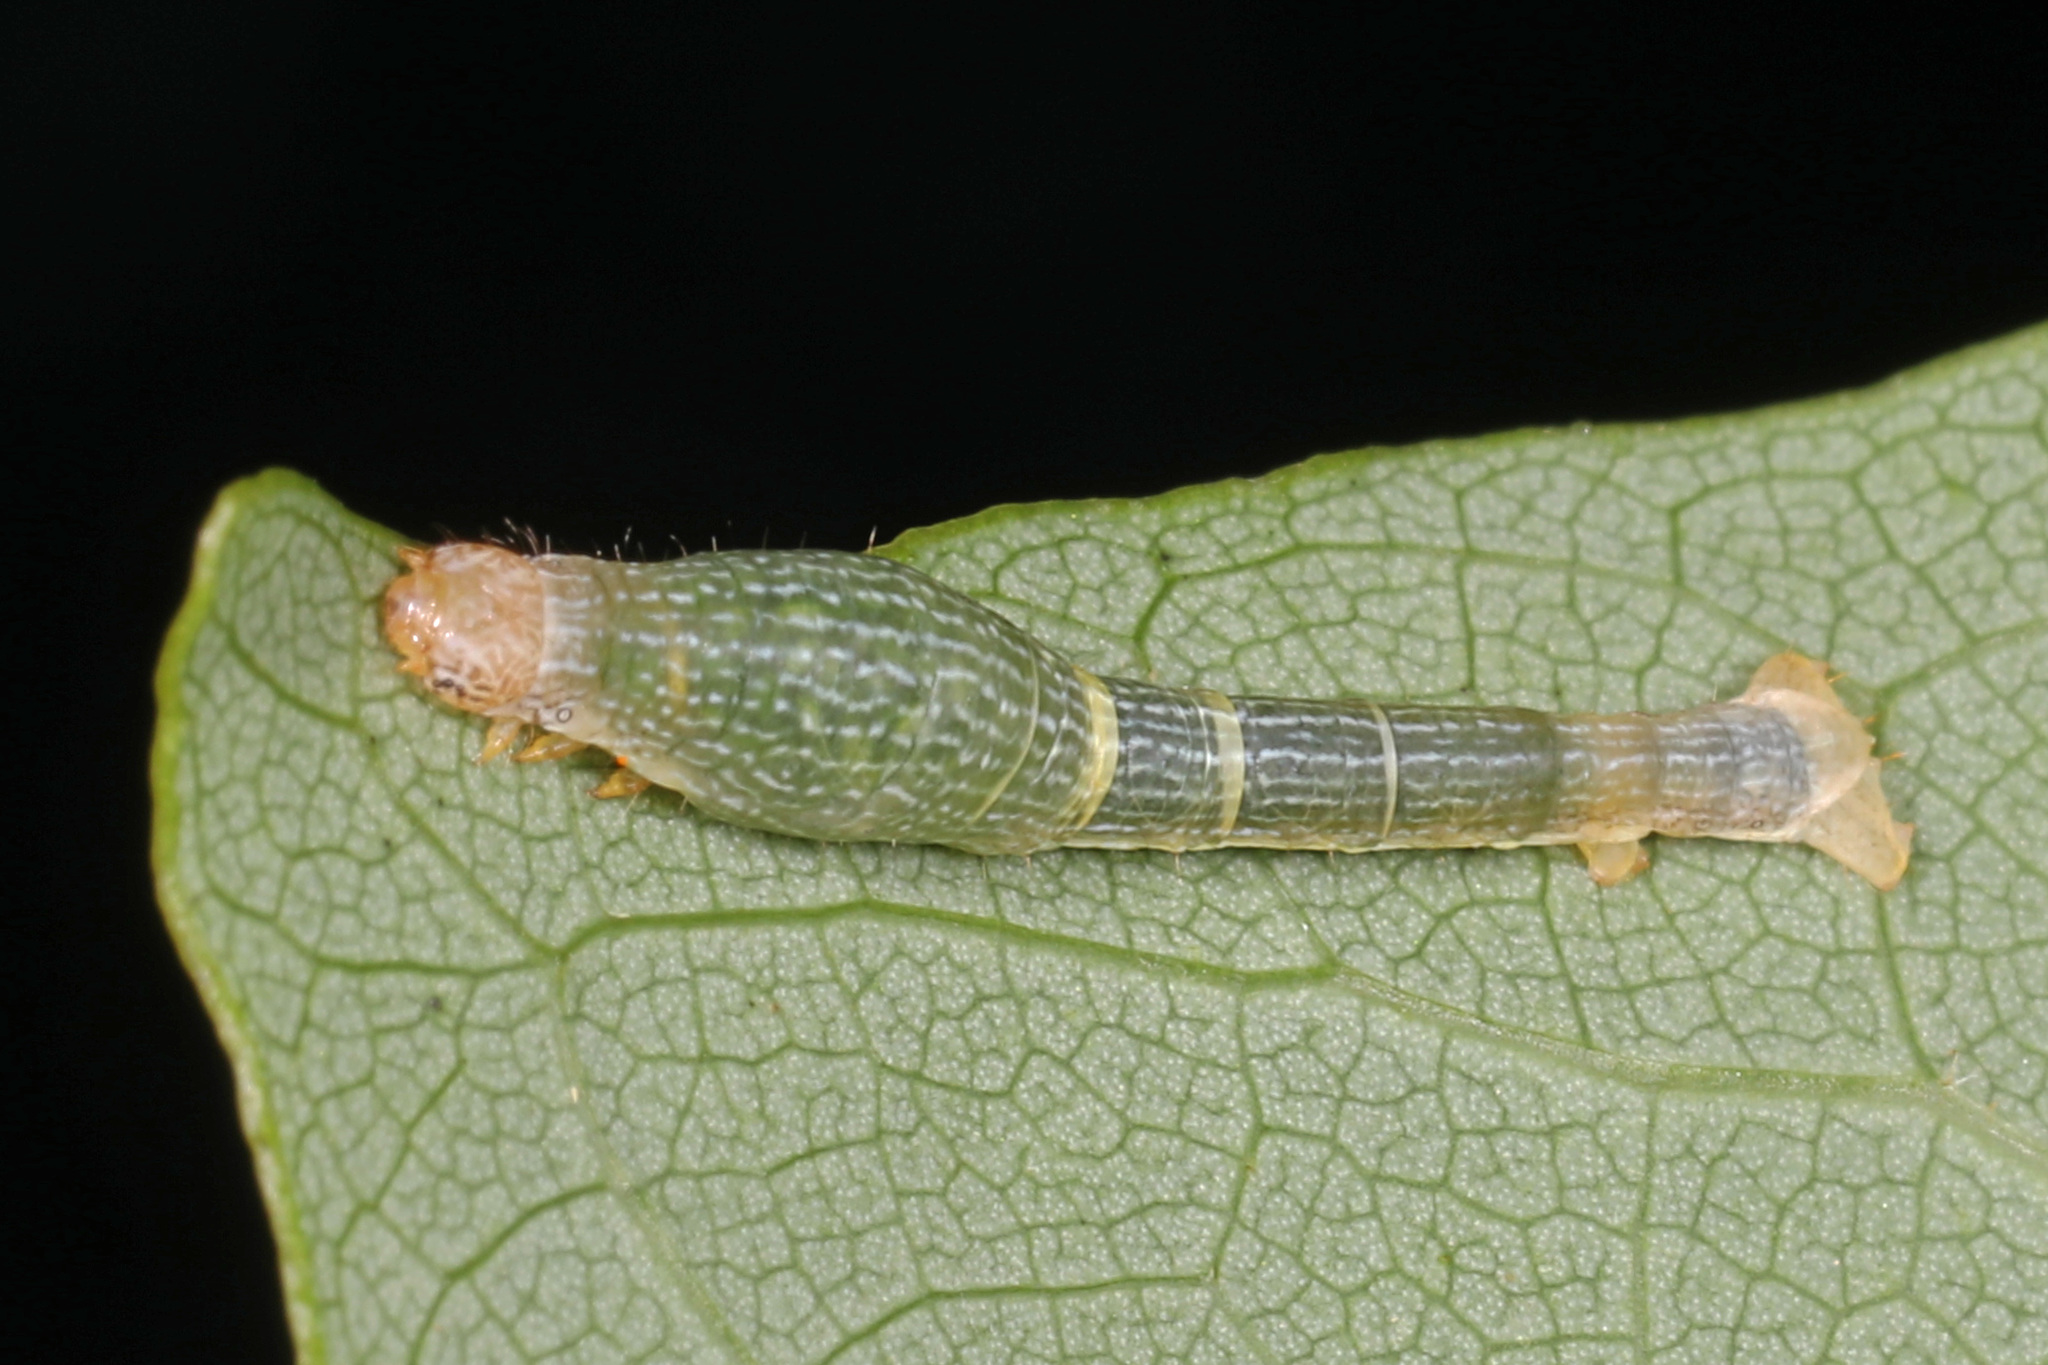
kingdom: Animalia
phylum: Arthropoda
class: Insecta
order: Lepidoptera
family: Geometridae
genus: Epimecis
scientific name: Epimecis hortaria
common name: Tulip-tree beauty
